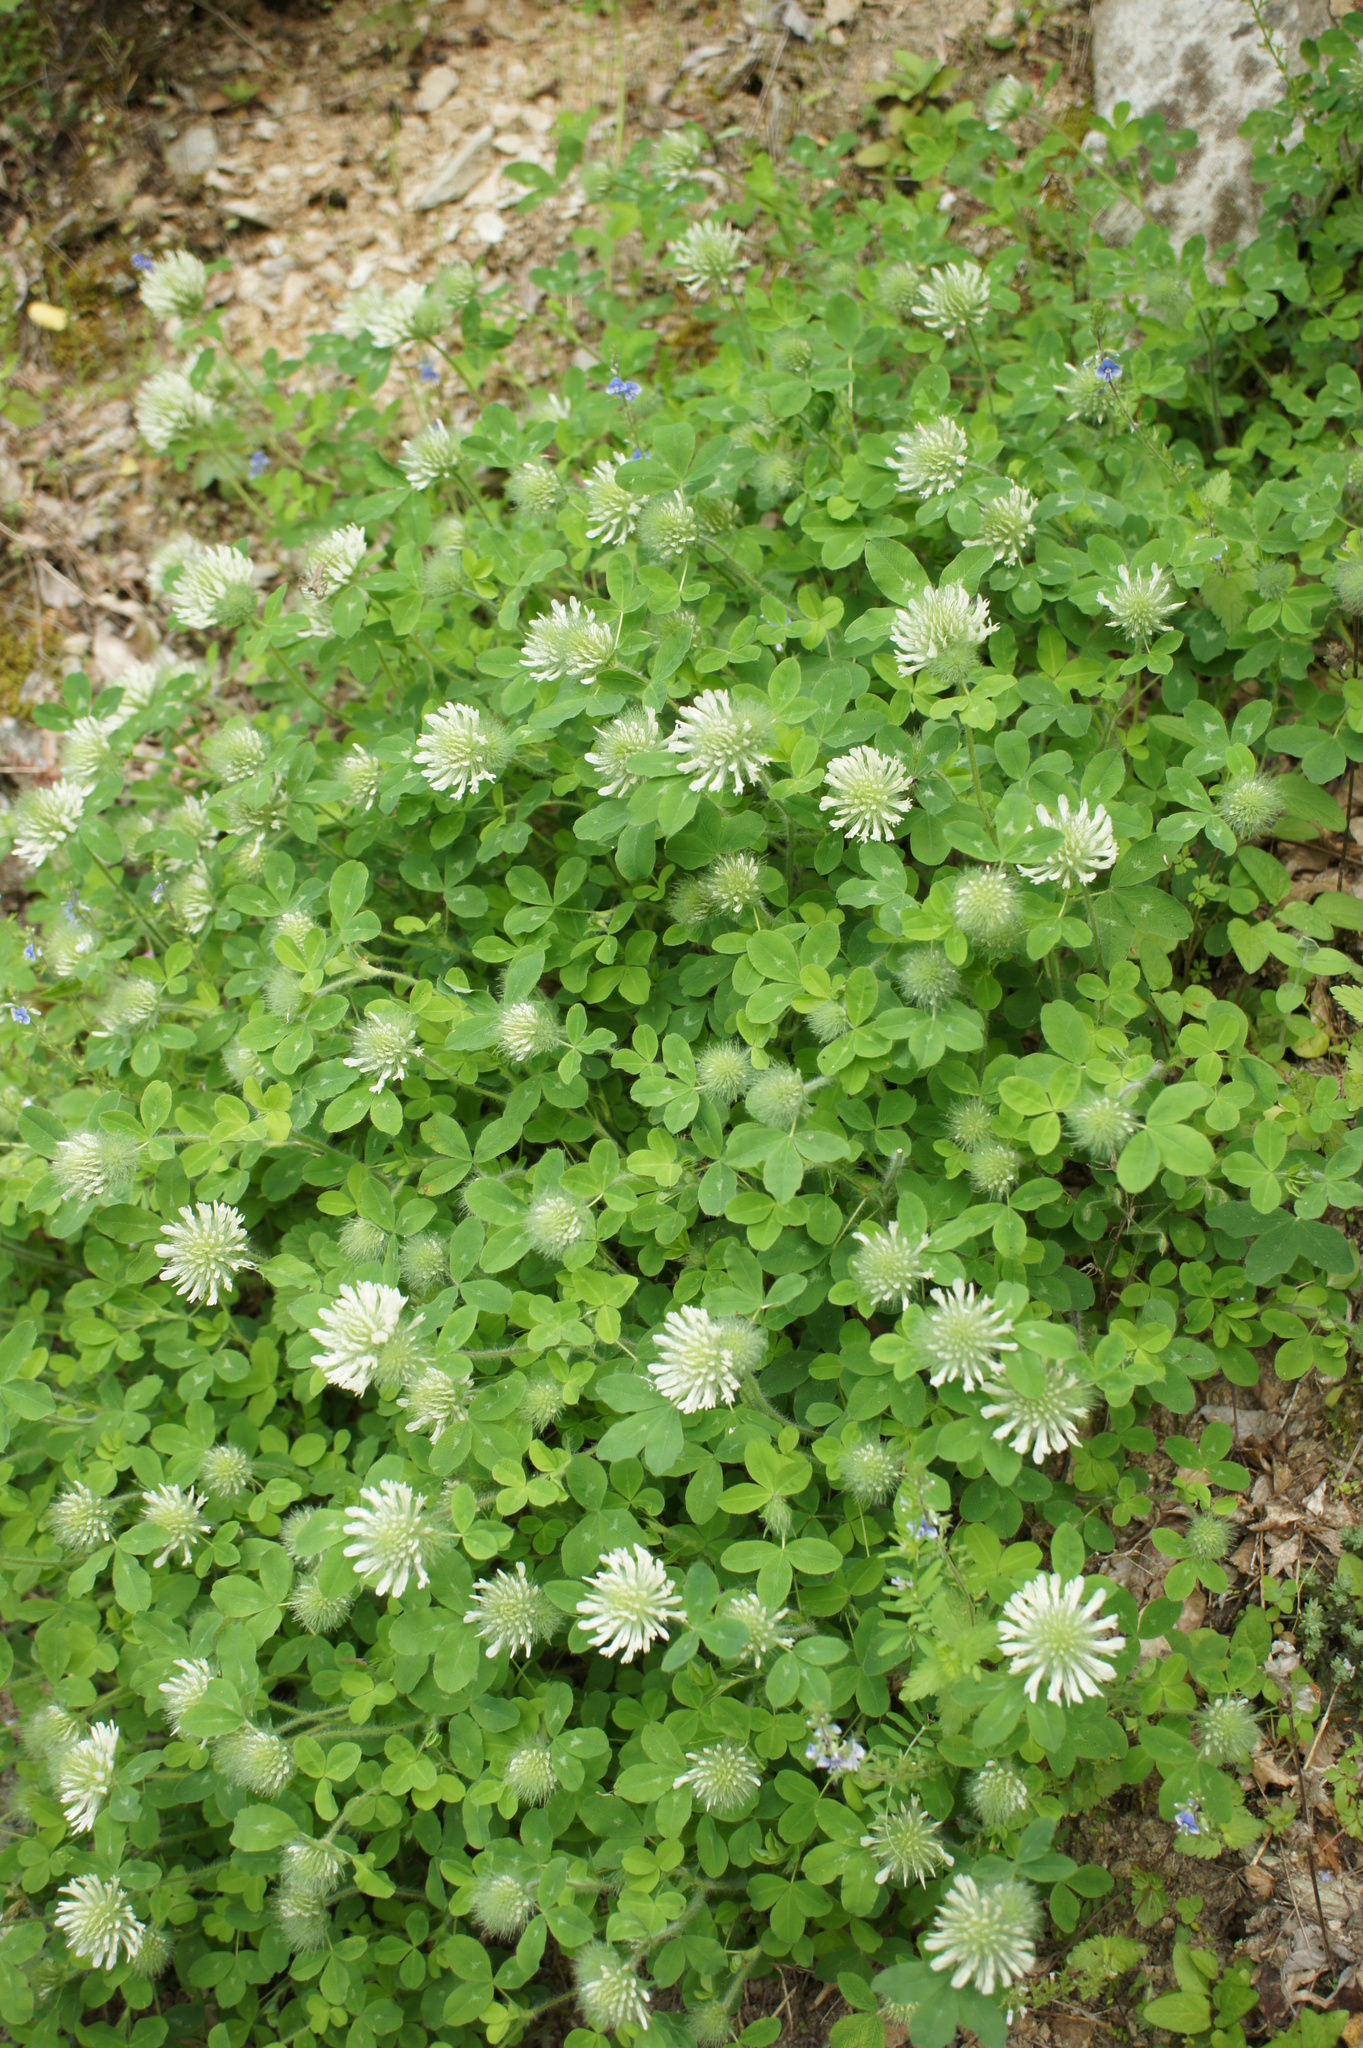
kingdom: Plantae
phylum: Tracheophyta
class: Magnoliopsida
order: Fabales
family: Fabaceae
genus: Trifolium
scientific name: Trifolium pignantii
